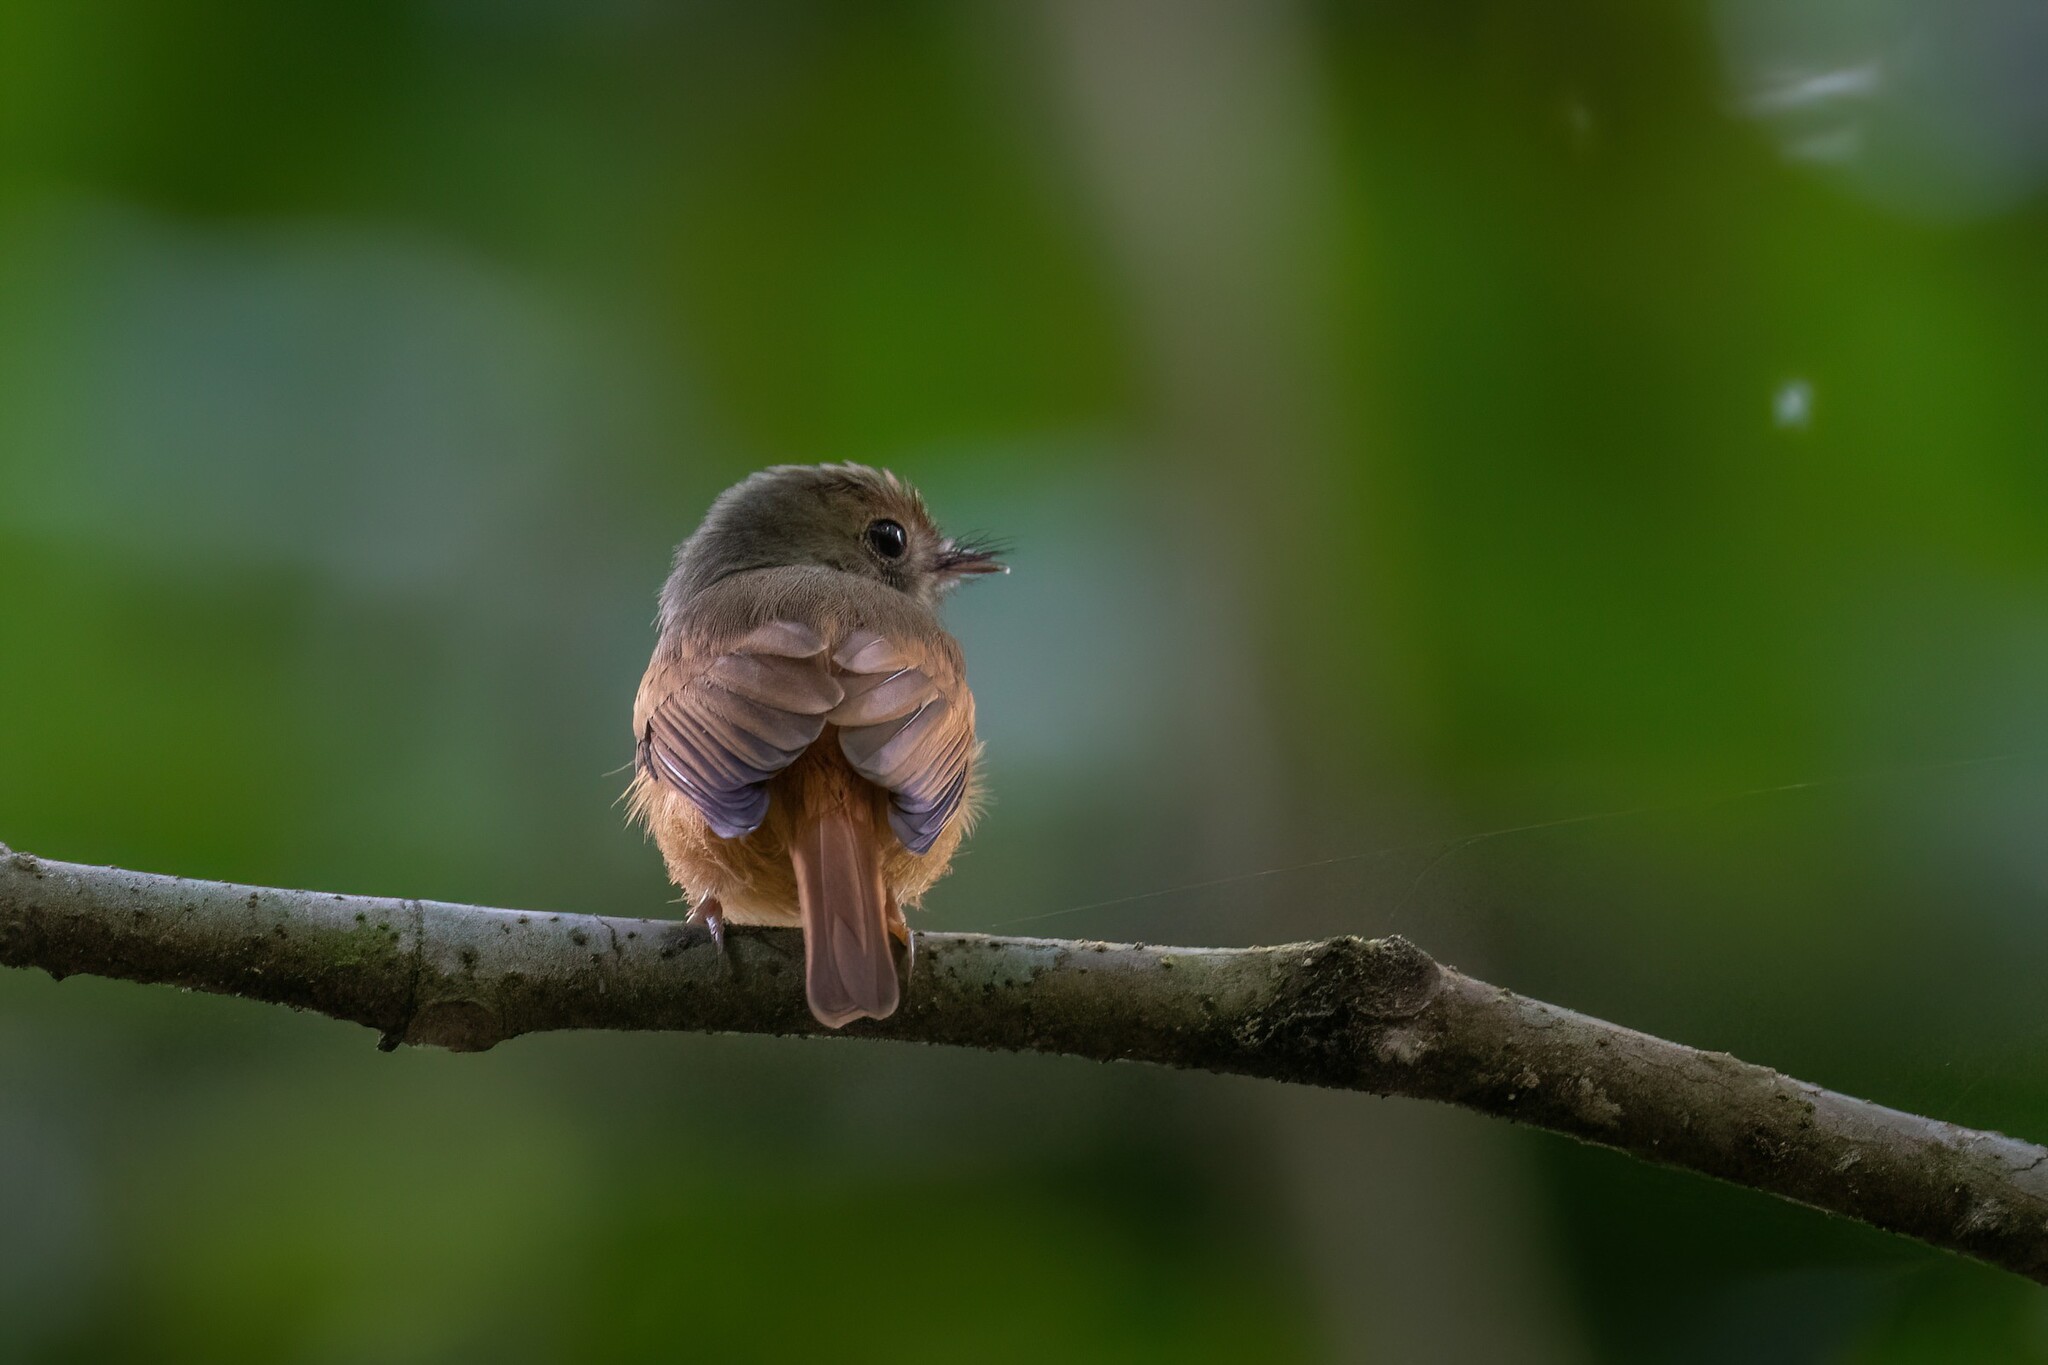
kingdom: Animalia
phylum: Chordata
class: Aves
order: Passeriformes
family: Tyrannidae
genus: Terenotriccus
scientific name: Terenotriccus erythrurus
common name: Ruddy-tailed flycatcher
